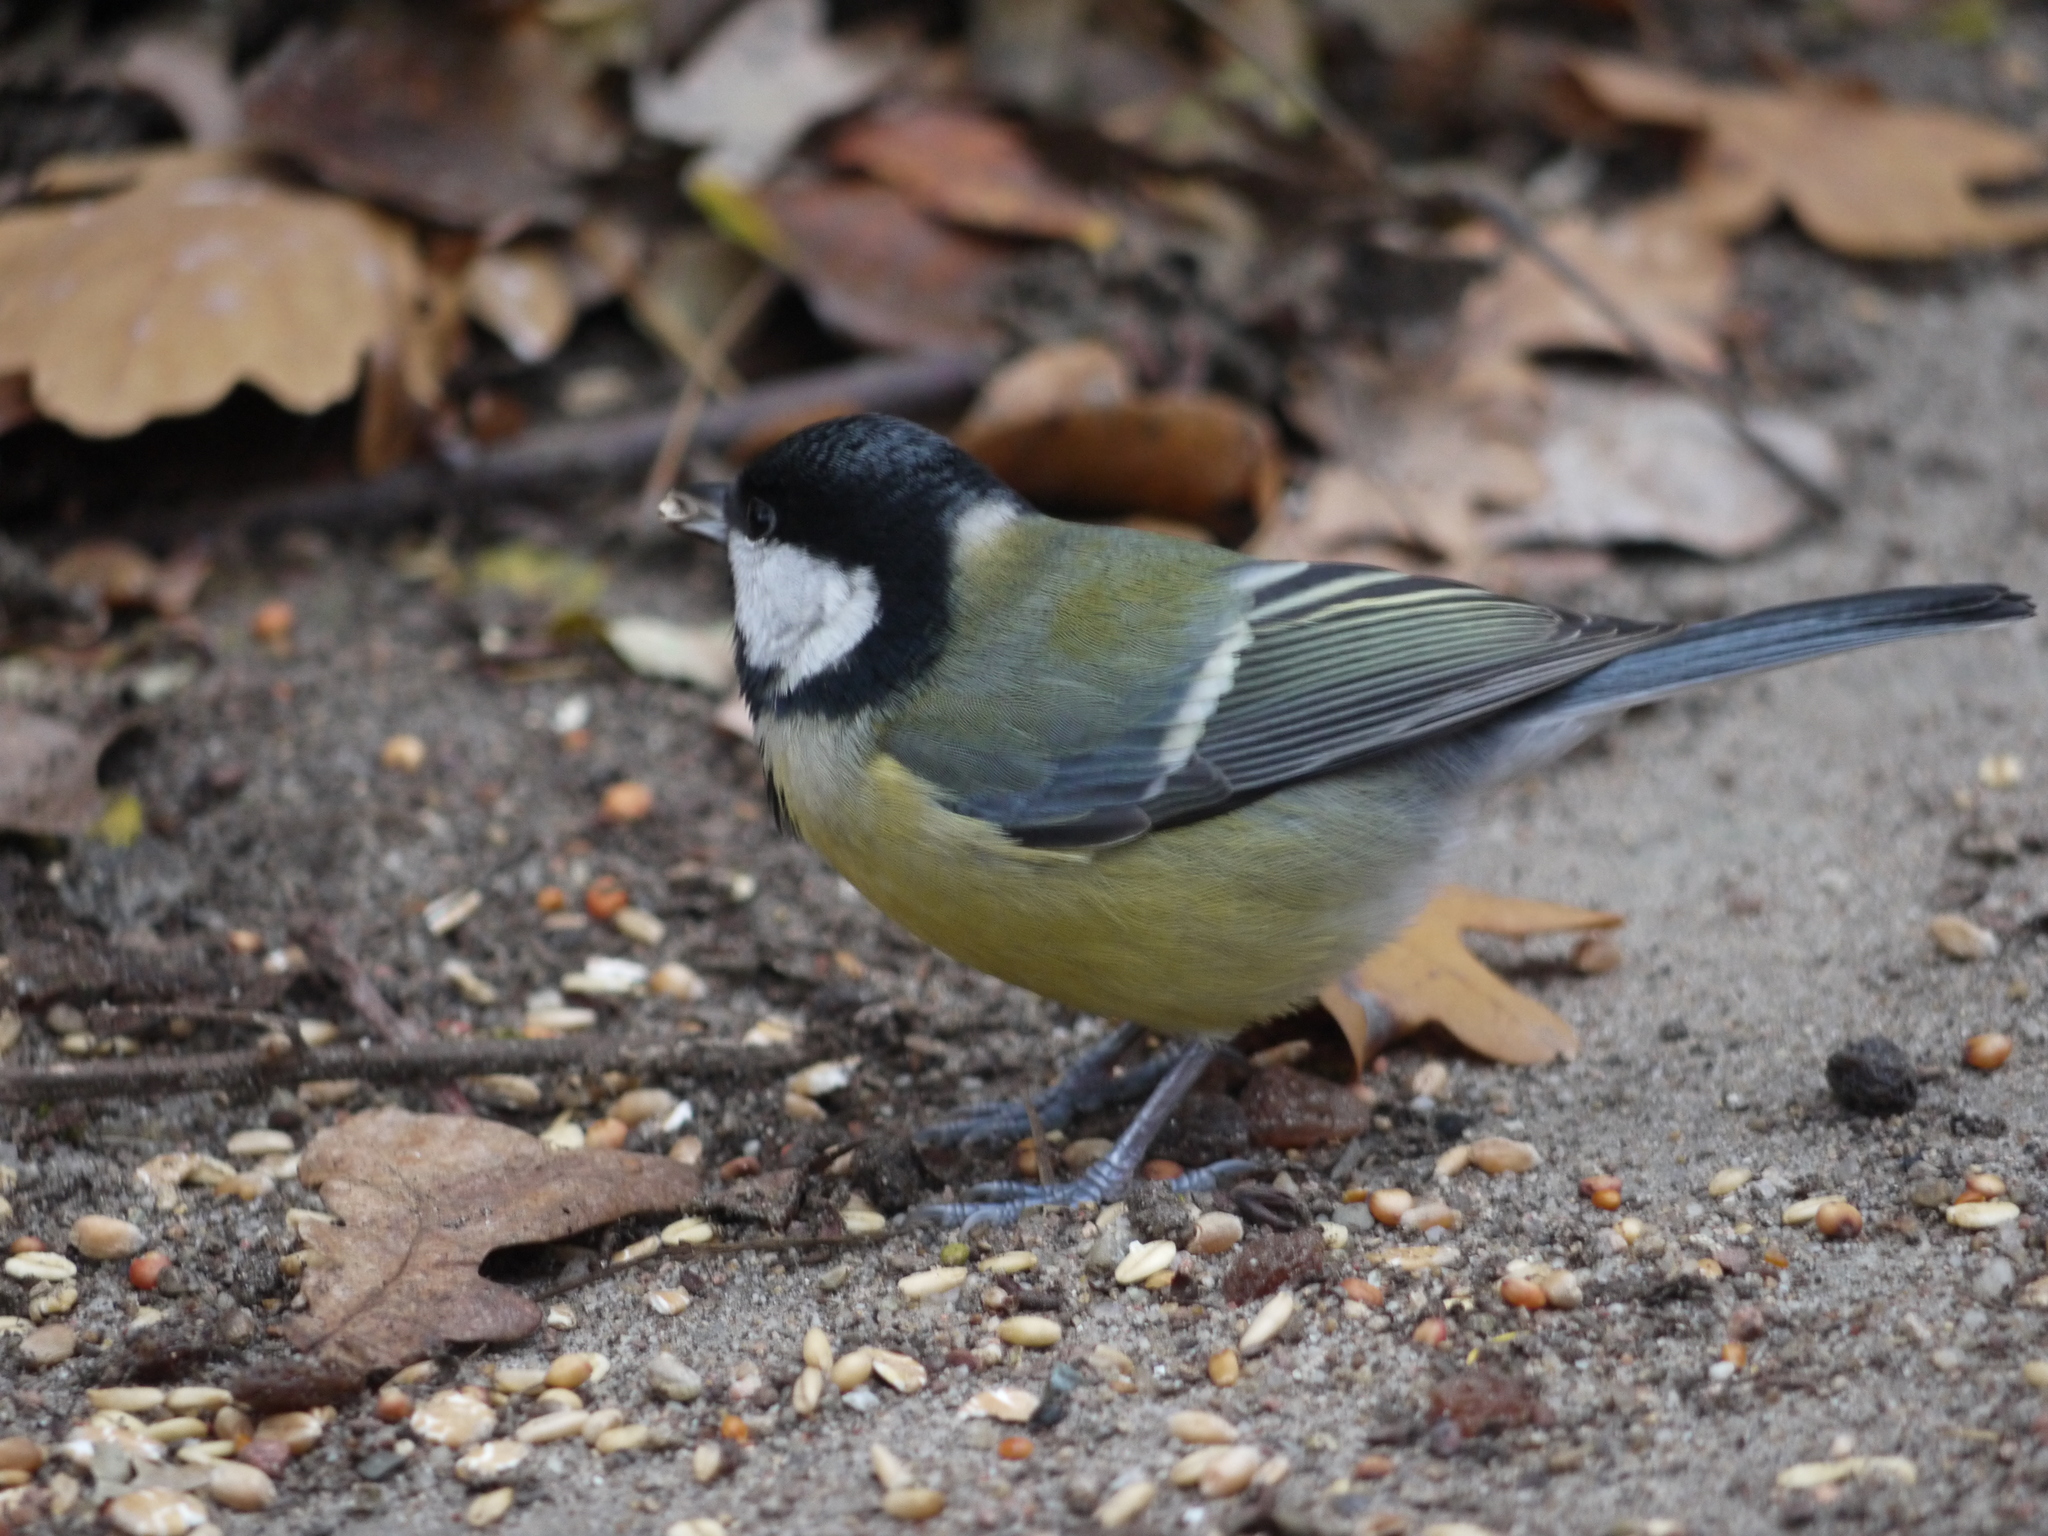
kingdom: Animalia
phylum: Chordata
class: Aves
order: Passeriformes
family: Paridae
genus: Parus
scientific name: Parus major
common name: Great tit
